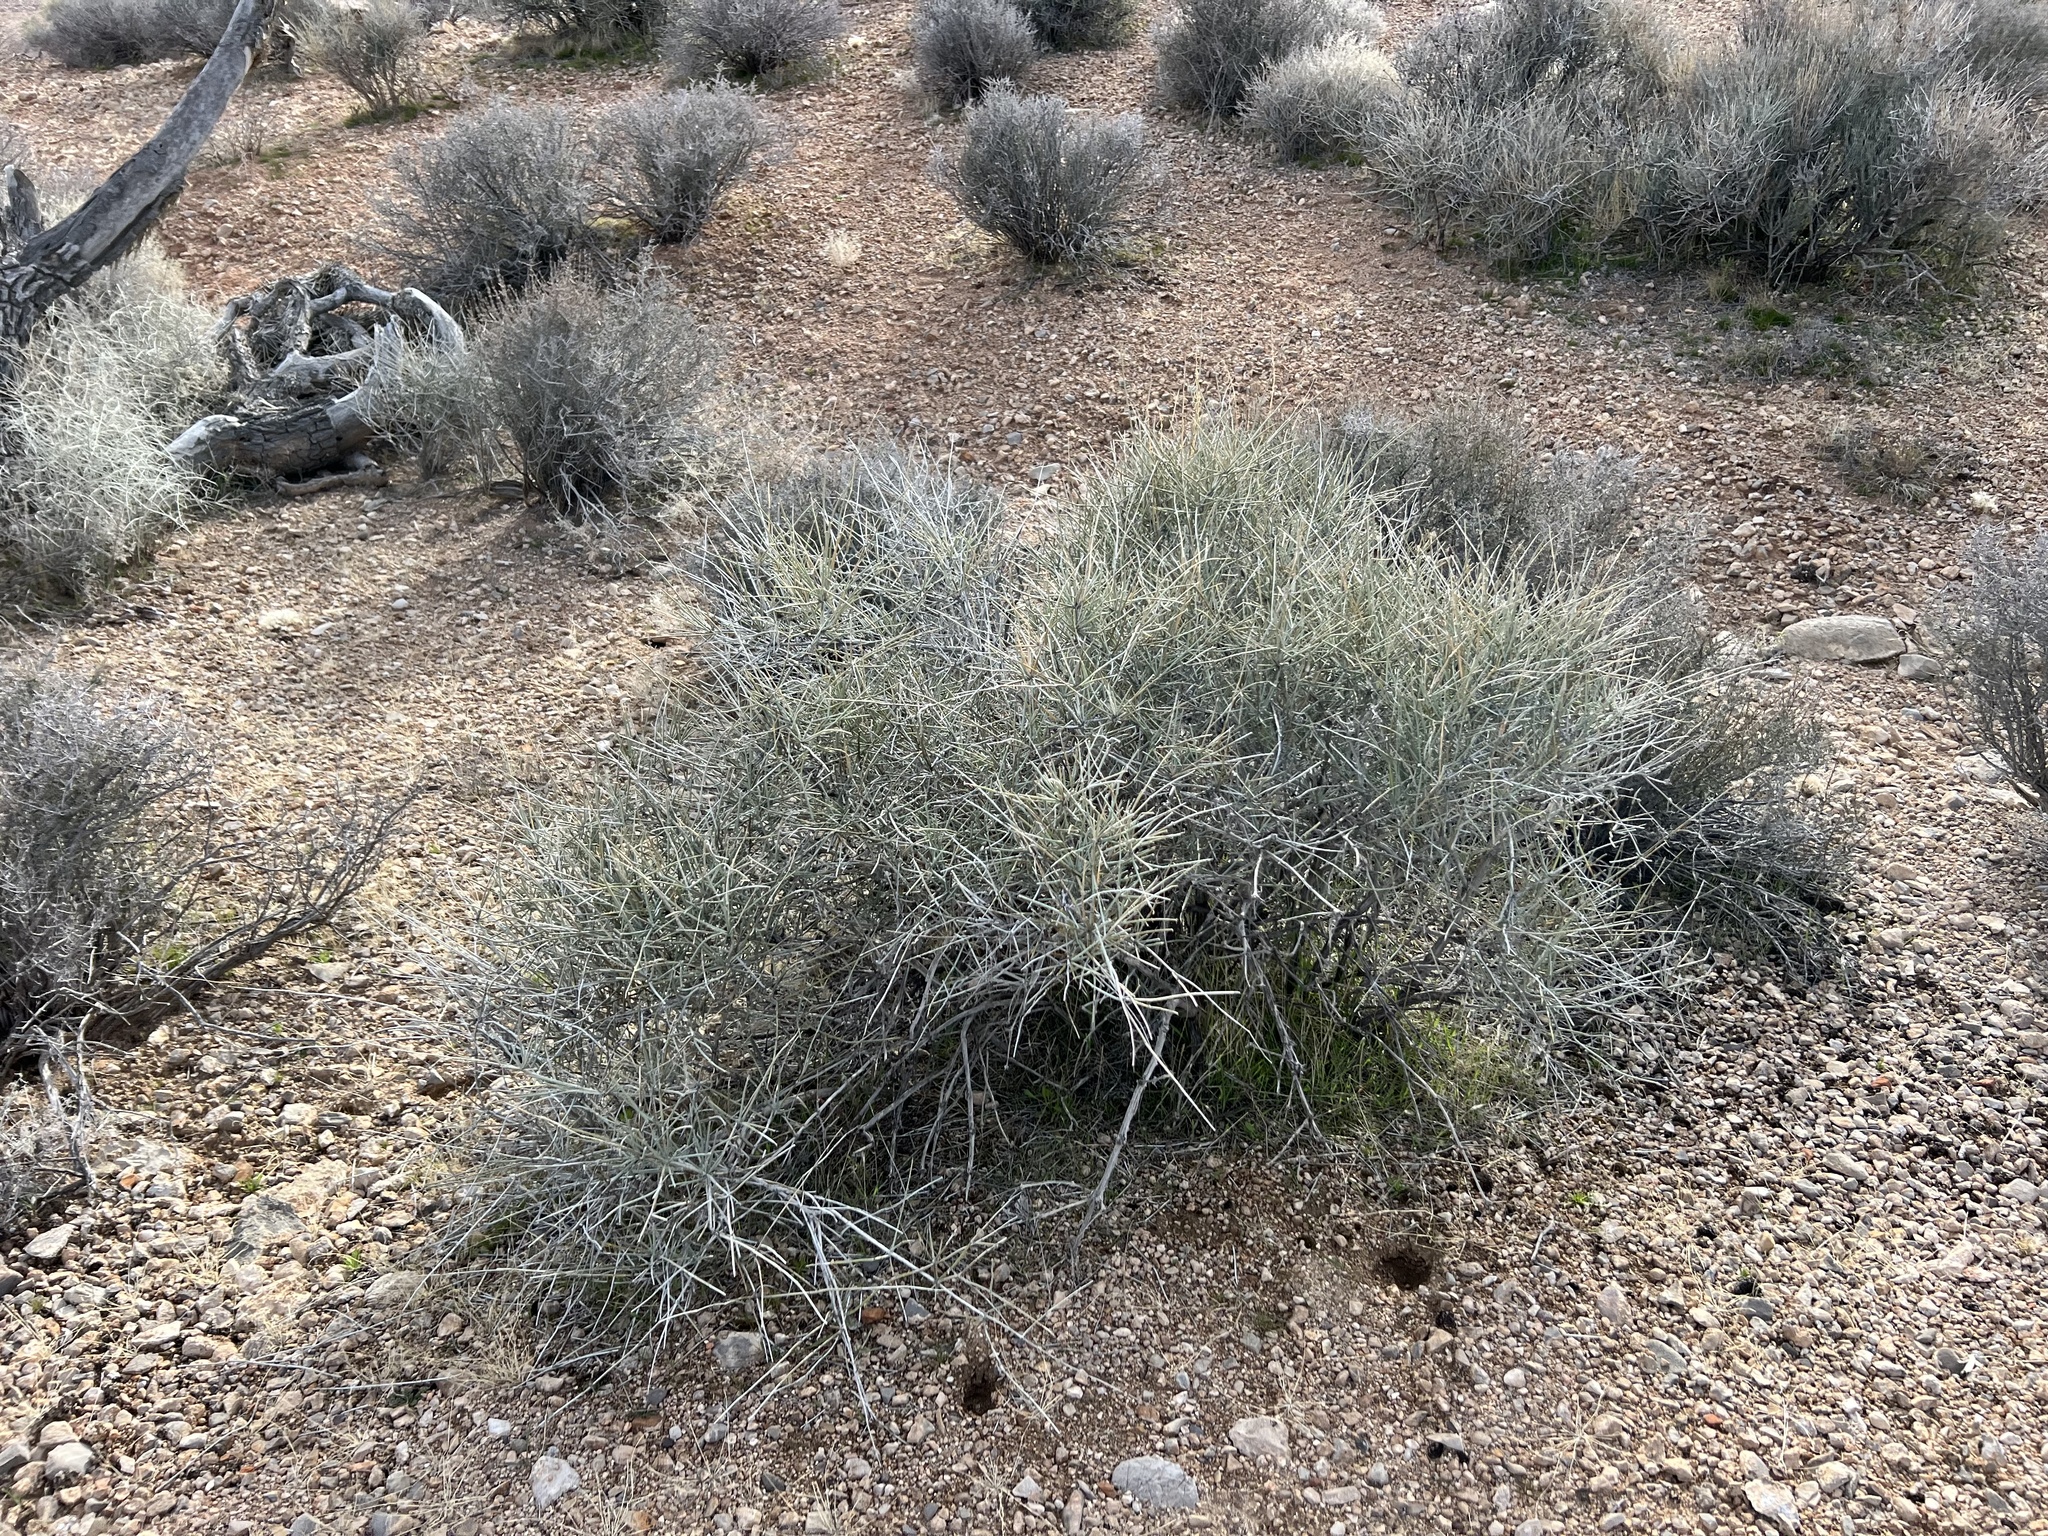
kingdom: Plantae
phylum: Tracheophyta
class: Gnetopsida
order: Ephedrales
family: Ephedraceae
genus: Ephedra
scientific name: Ephedra nevadensis
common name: Gray ephedra
